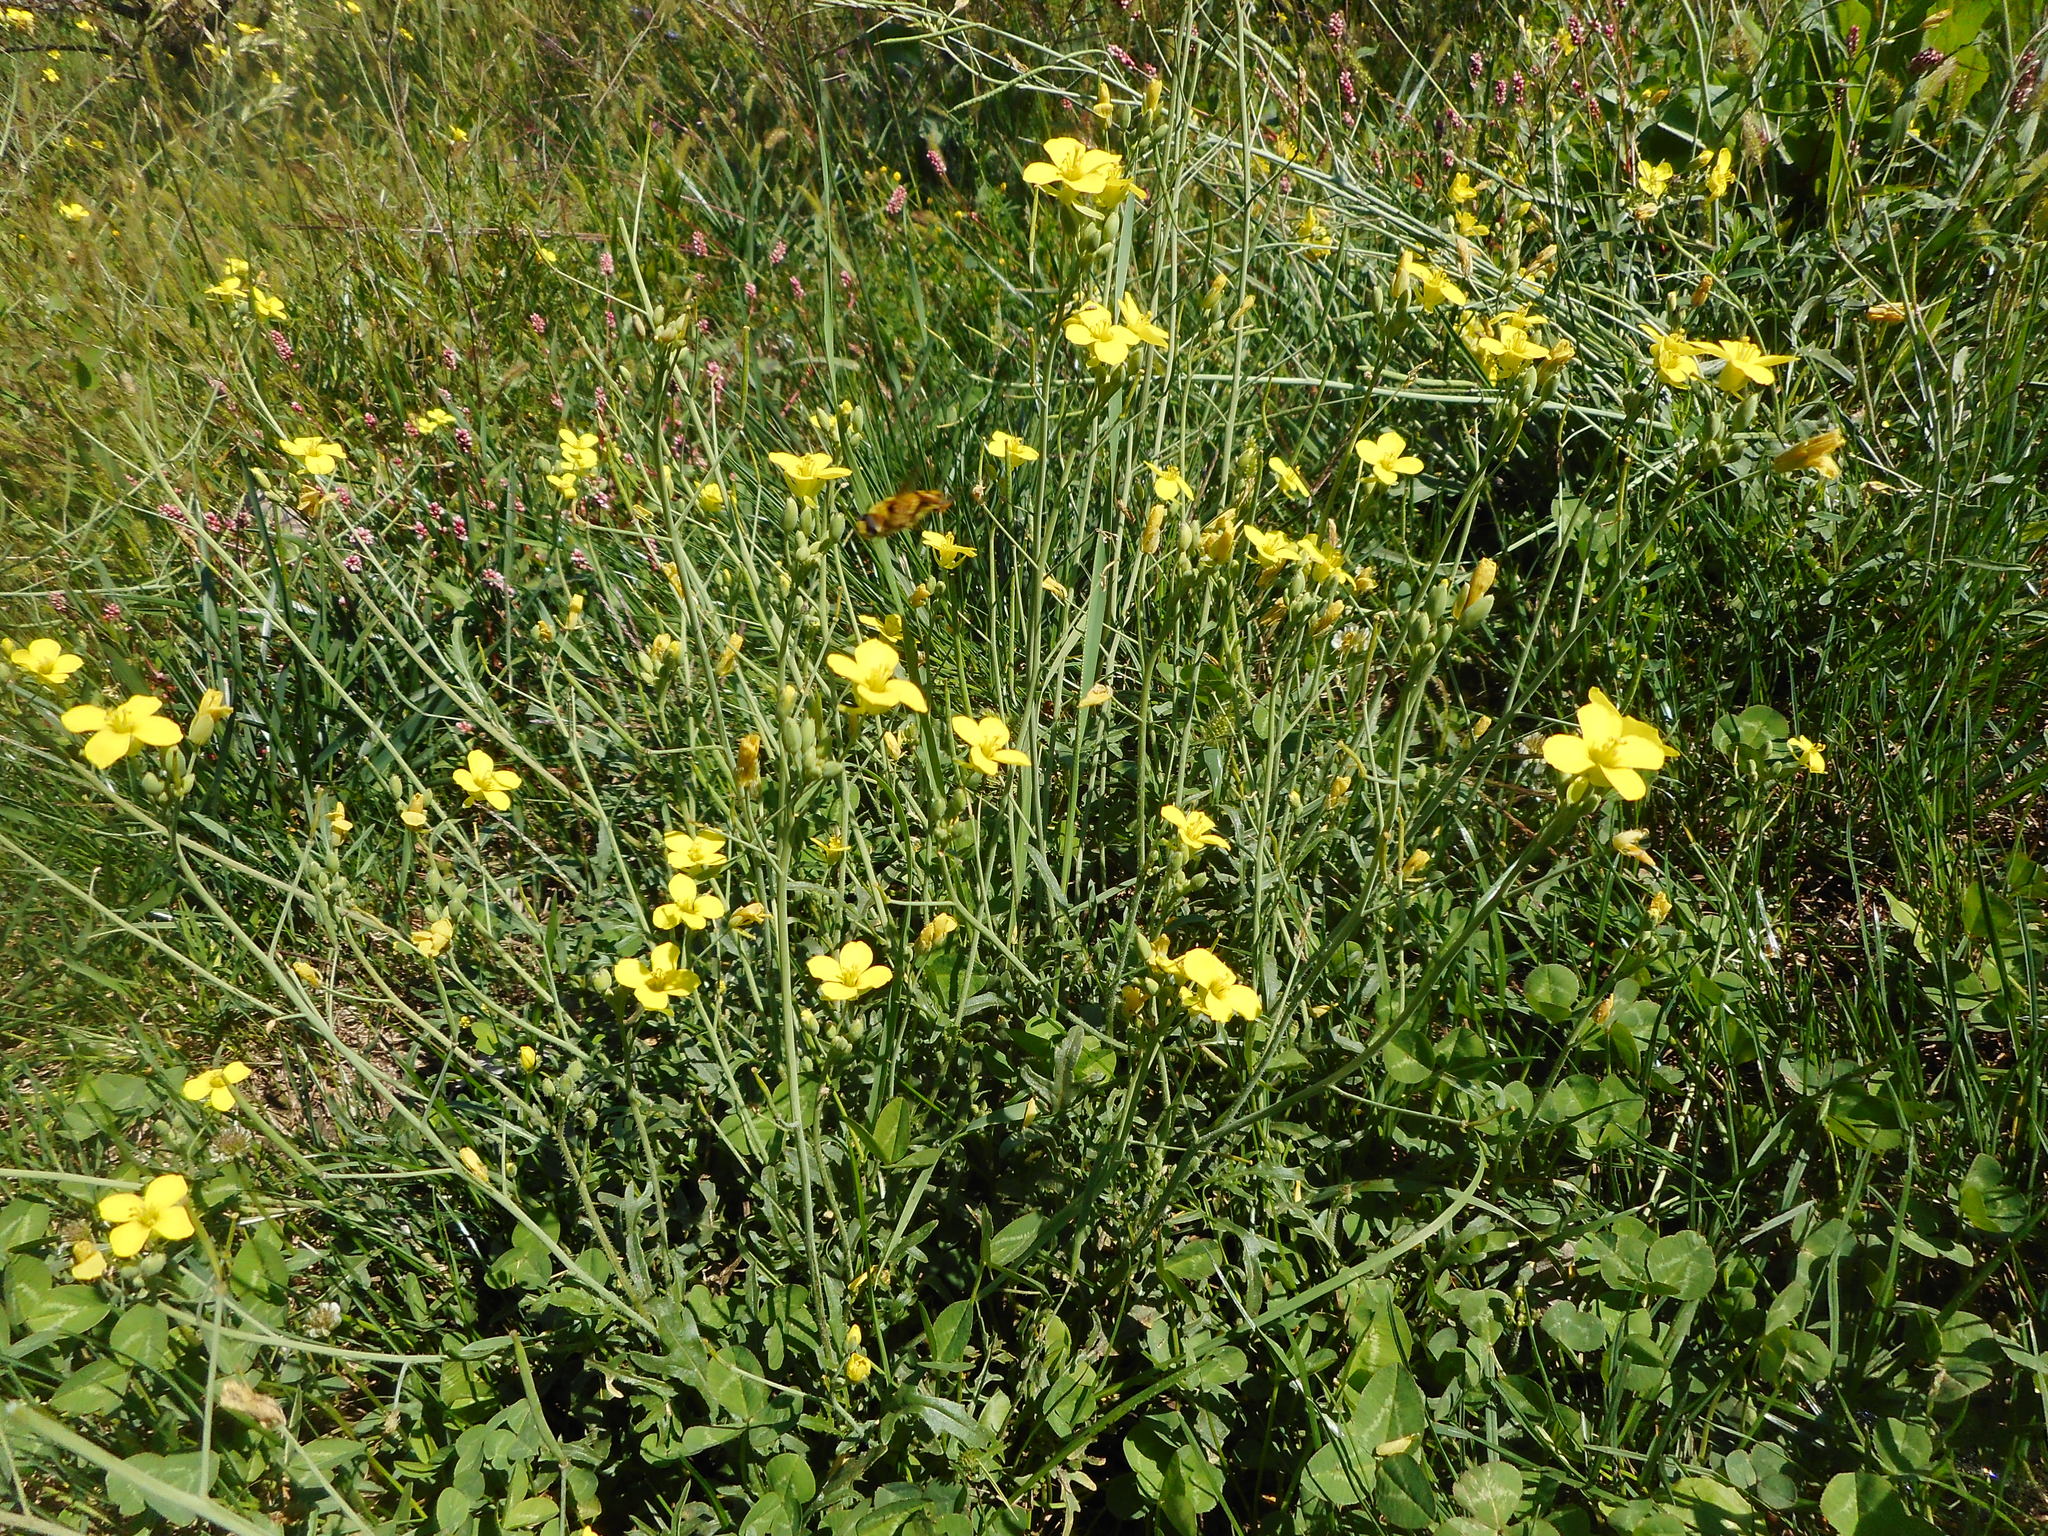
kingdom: Plantae
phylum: Tracheophyta
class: Magnoliopsida
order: Brassicales
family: Brassicaceae
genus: Diplotaxis
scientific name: Diplotaxis tenuifolia
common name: Perennial wall-rocket
